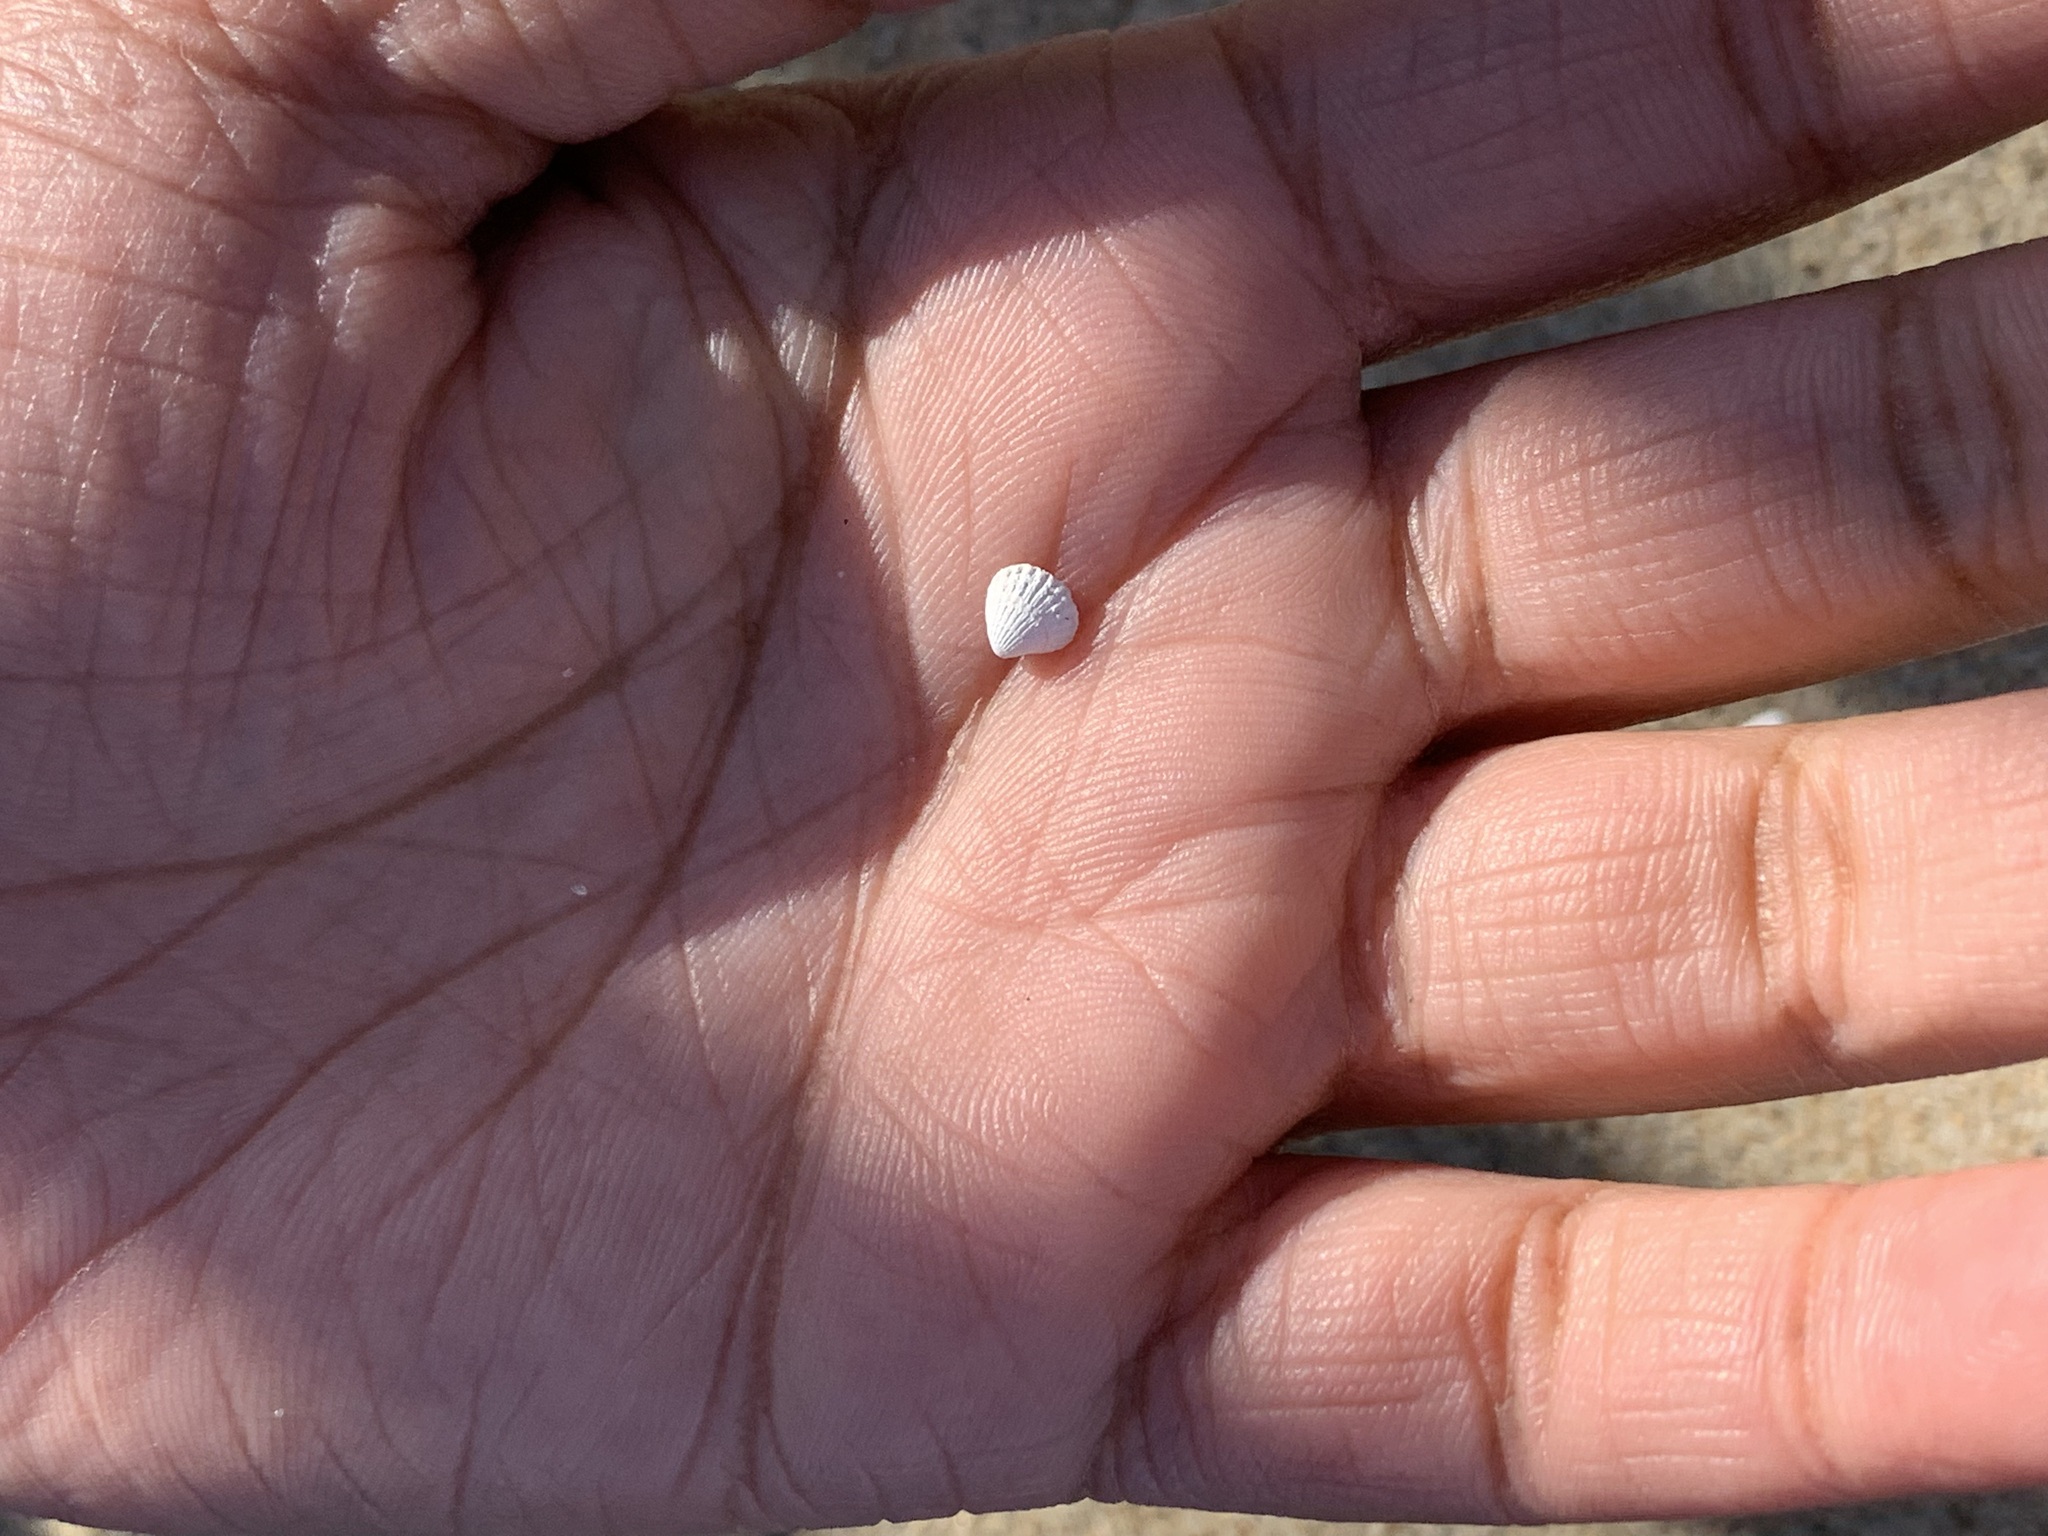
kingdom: Animalia
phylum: Mollusca
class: Bivalvia
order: Carditida
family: Carditidae
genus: Pleuromeris
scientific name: Pleuromeris tridentata
